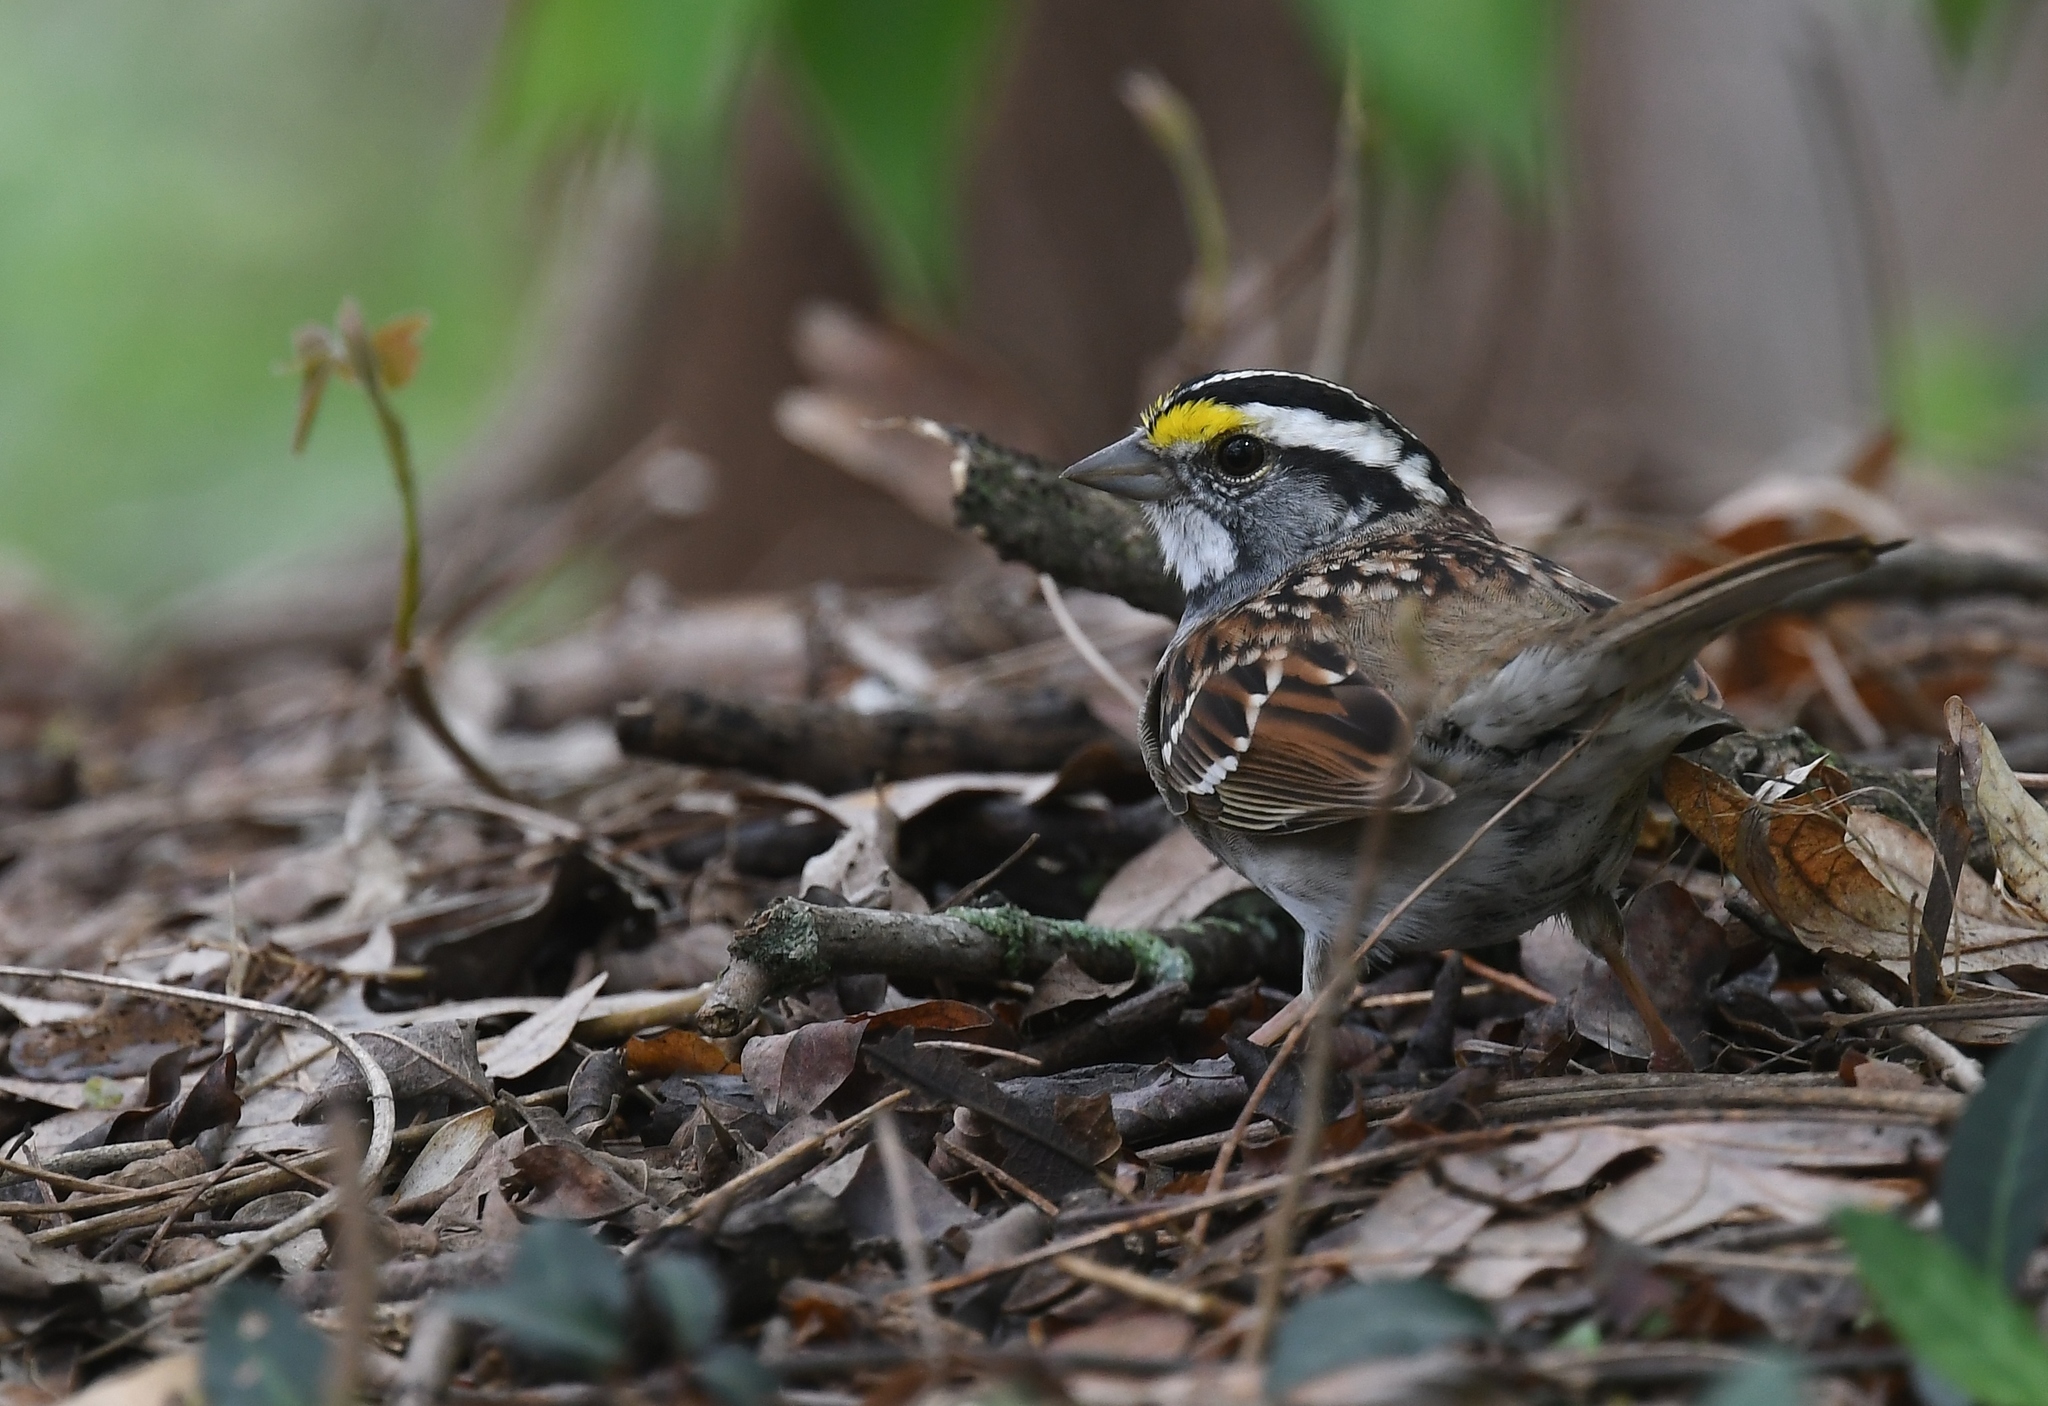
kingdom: Animalia
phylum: Chordata
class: Aves
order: Passeriformes
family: Passerellidae
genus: Zonotrichia
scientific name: Zonotrichia albicollis
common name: White-throated sparrow
